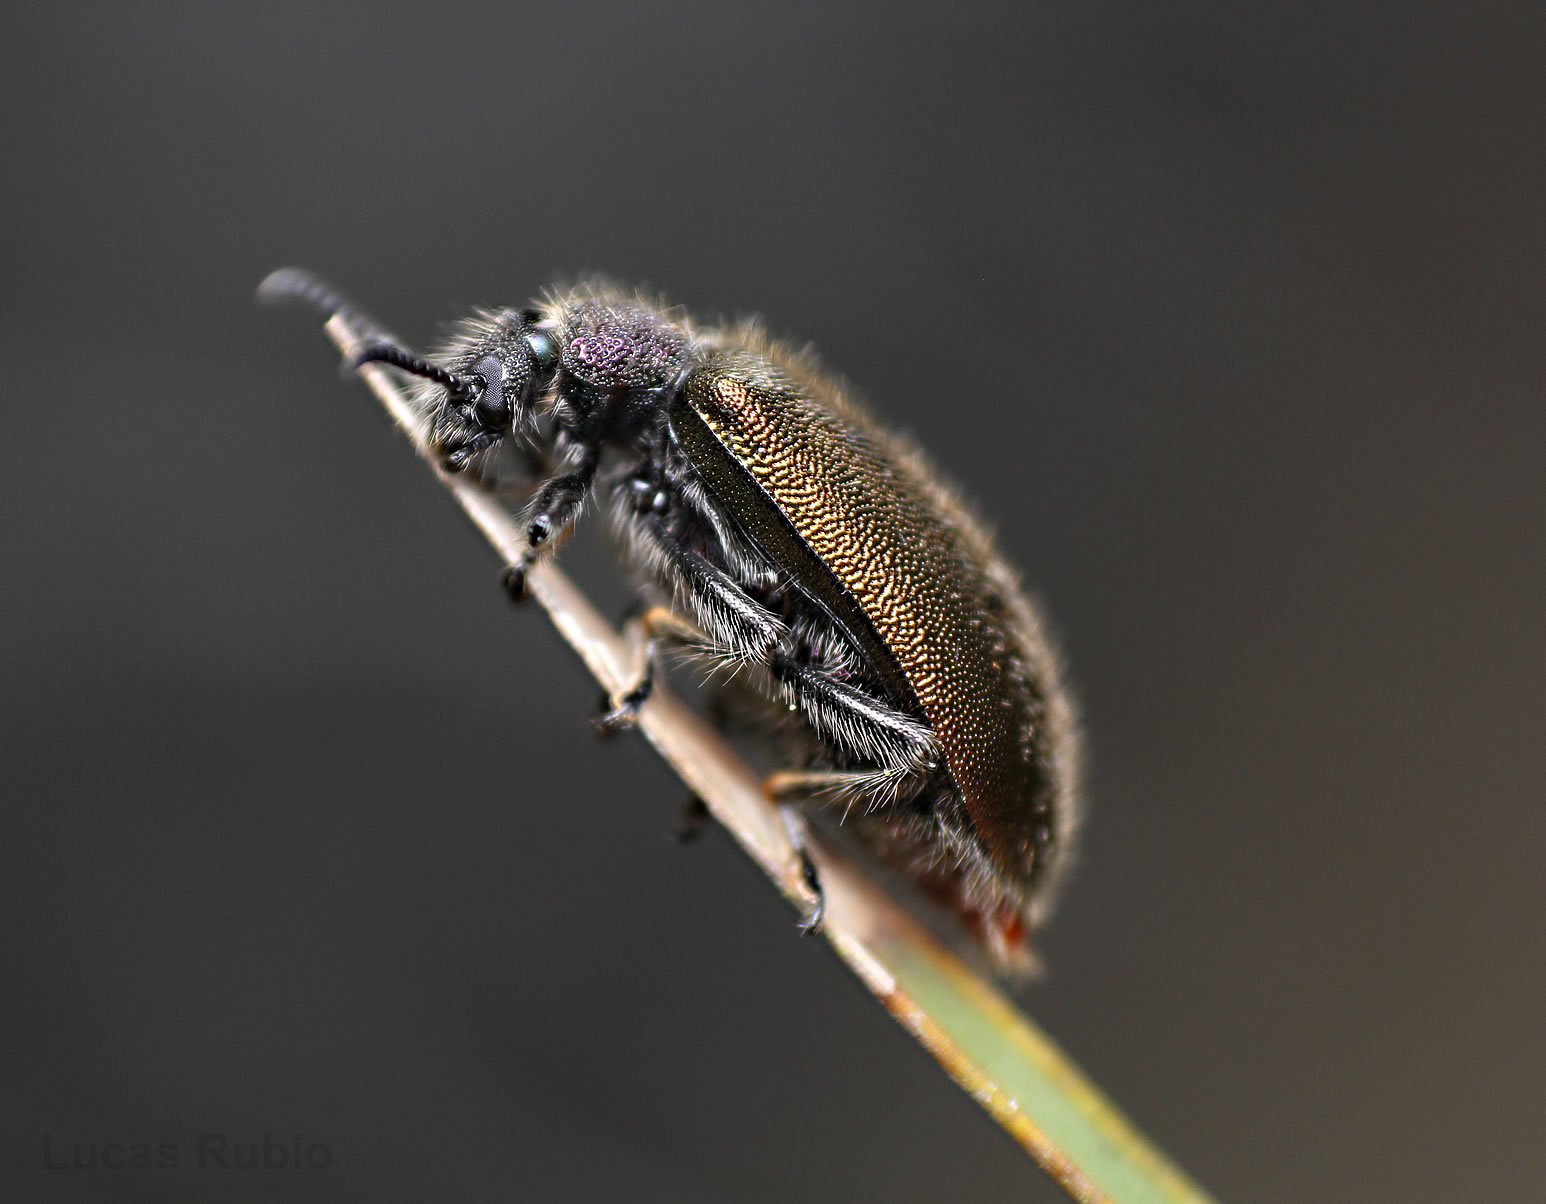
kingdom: Animalia
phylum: Arthropoda
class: Insecta
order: Coleoptera
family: Tenebrionidae
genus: Lagria
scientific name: Lagria villosa
